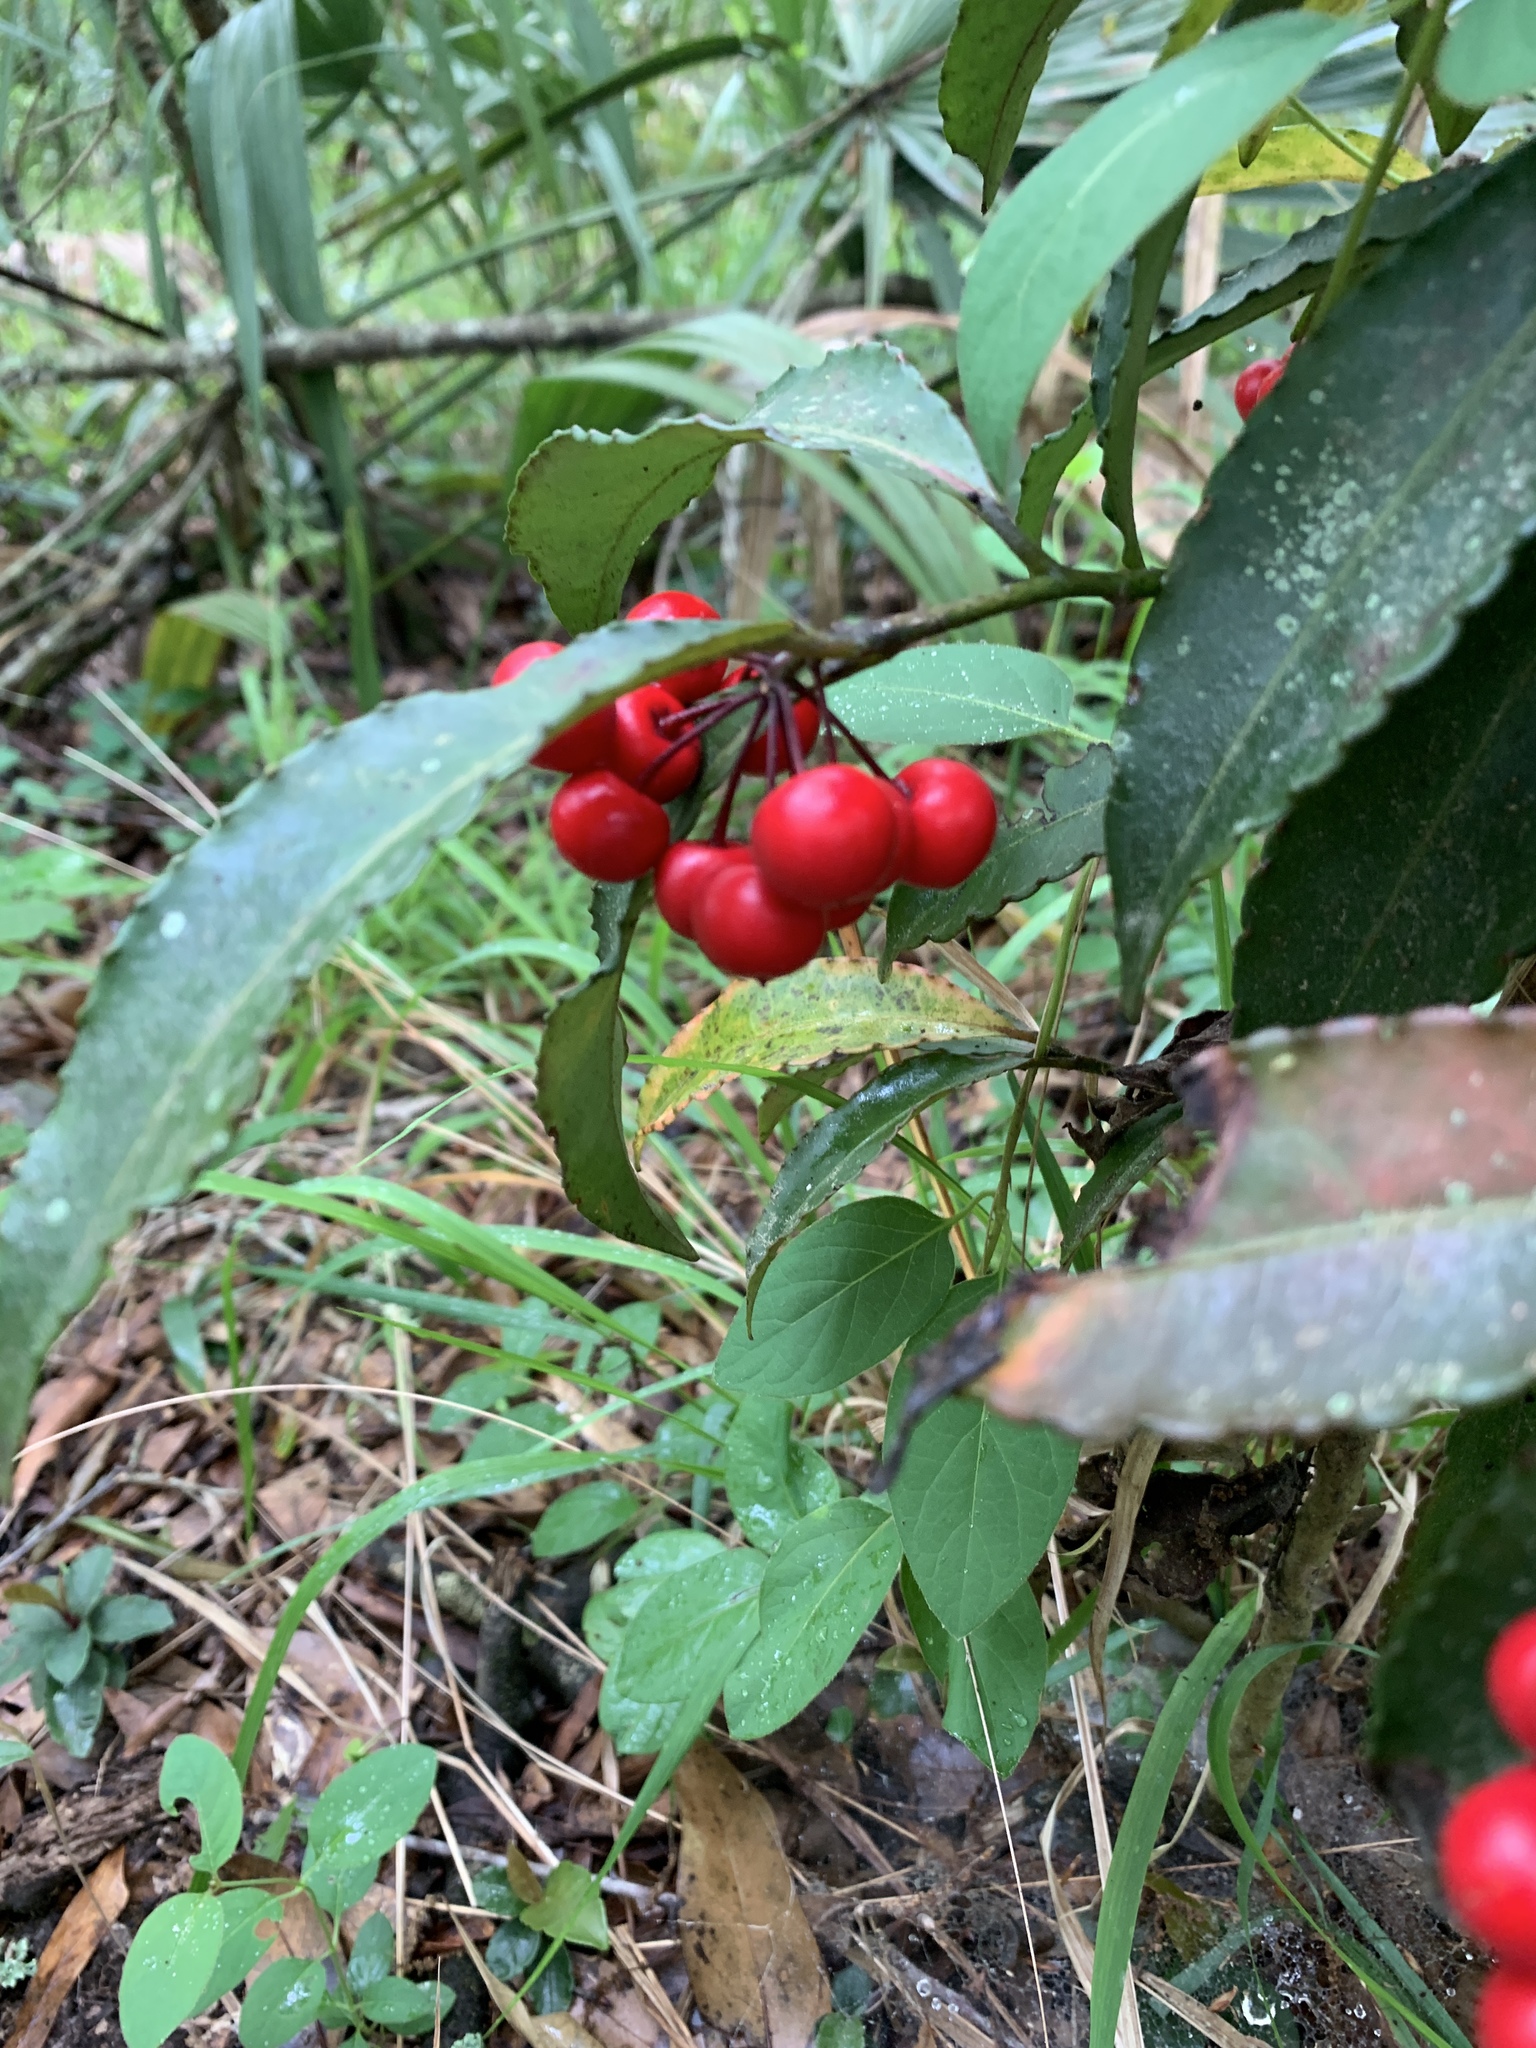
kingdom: Plantae
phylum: Tracheophyta
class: Magnoliopsida
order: Ericales
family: Primulaceae
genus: Ardisia
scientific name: Ardisia crenata
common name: Hen's eyes
